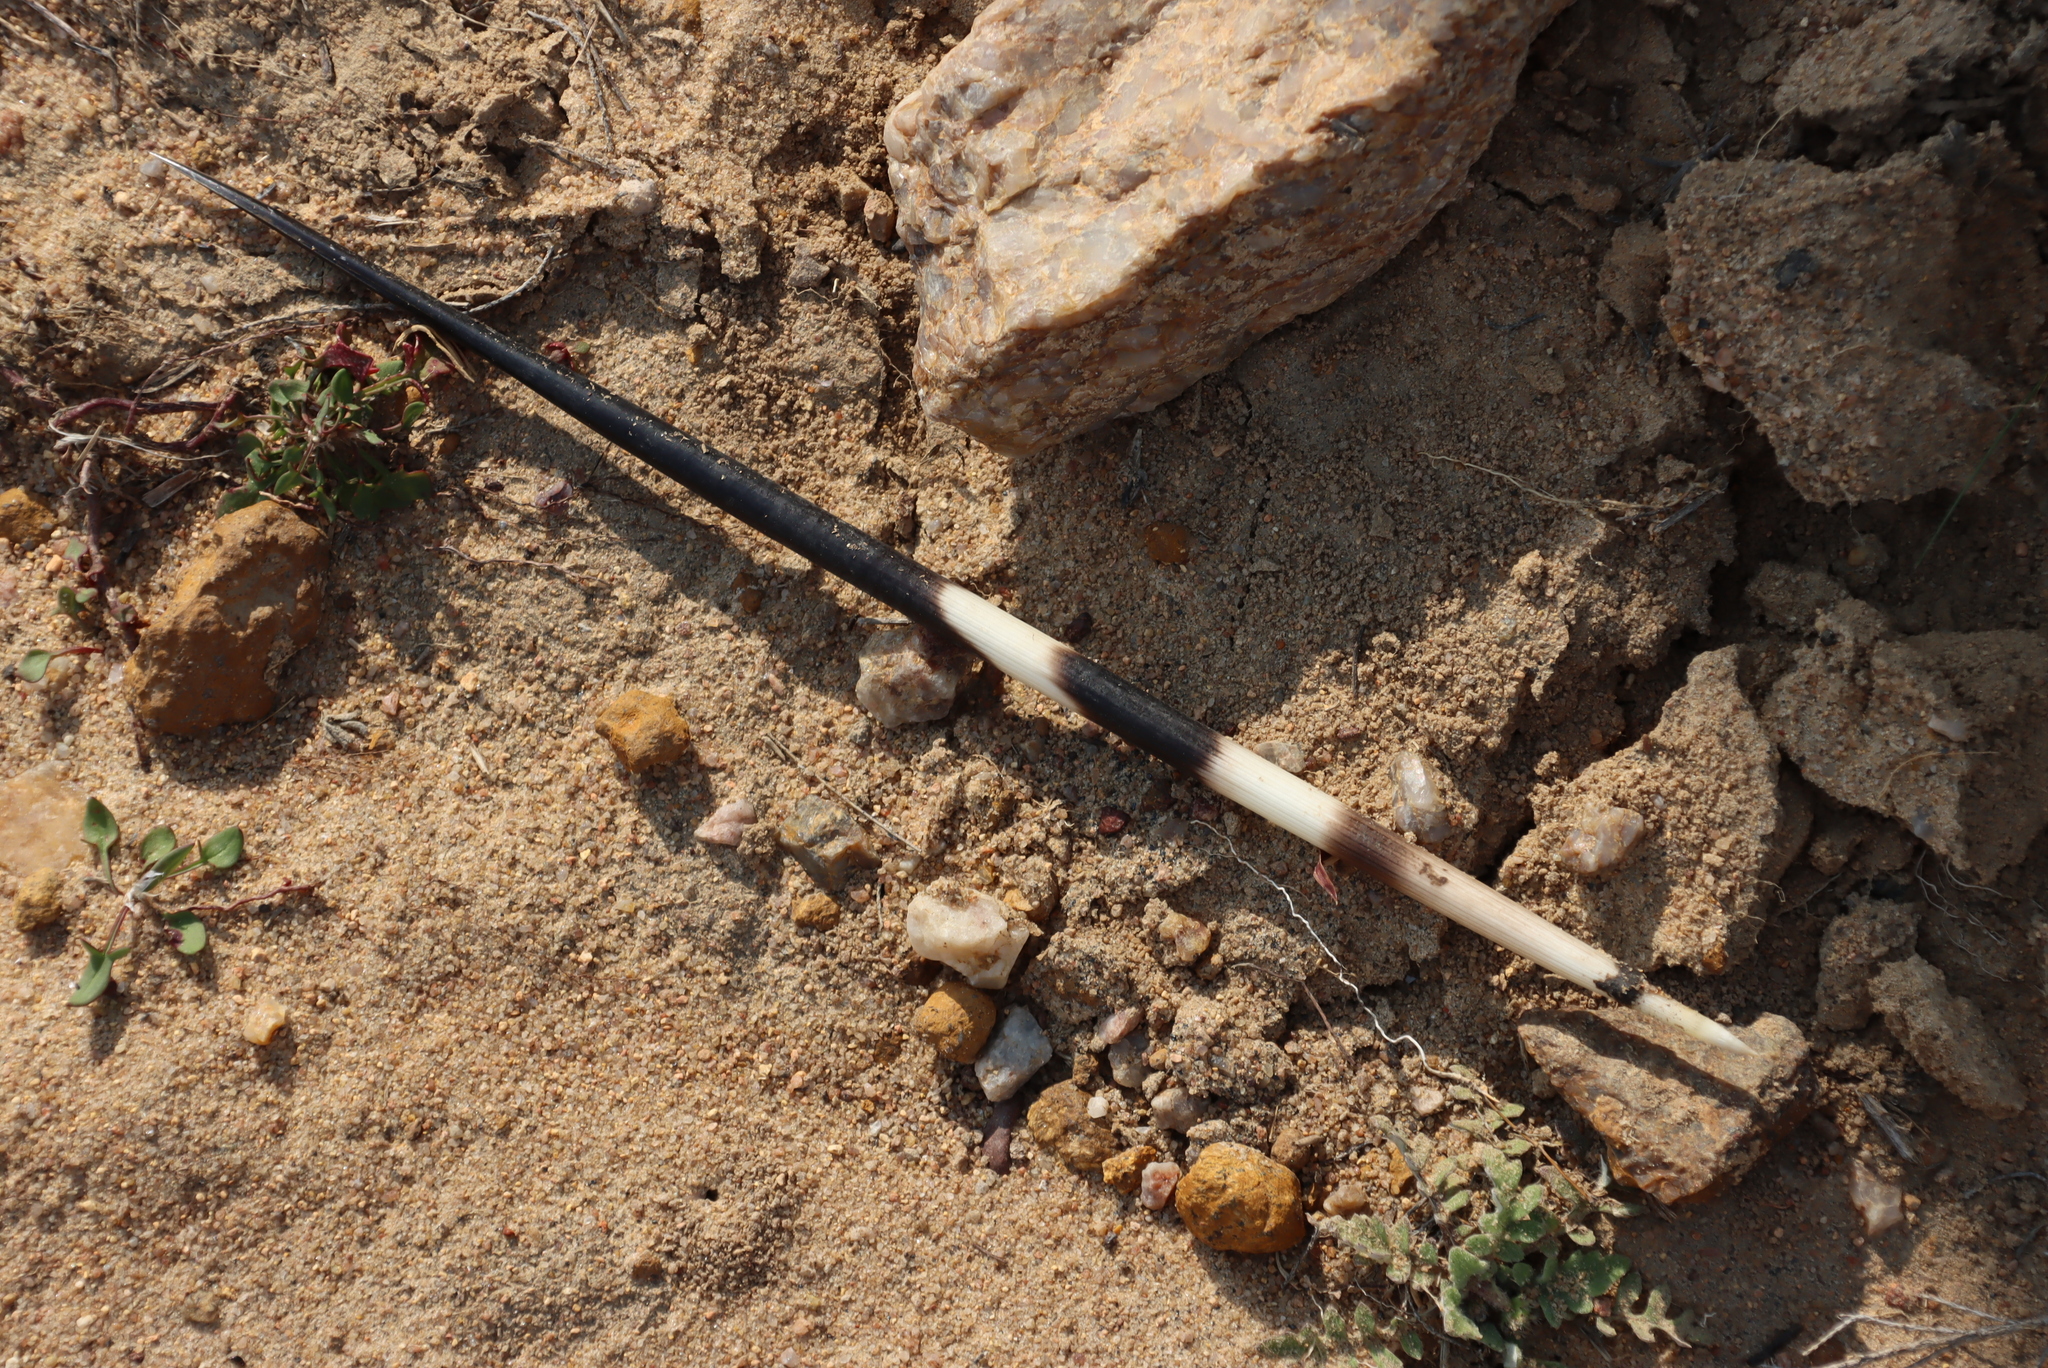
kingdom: Animalia
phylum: Chordata
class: Mammalia
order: Rodentia
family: Hystricidae
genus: Hystrix
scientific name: Hystrix africaeaustralis
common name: Cape porcupine
